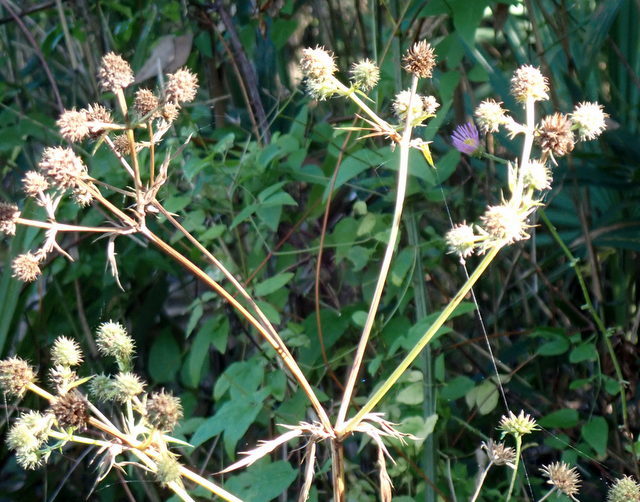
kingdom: Plantae
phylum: Tracheophyta
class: Magnoliopsida
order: Apiales
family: Apiaceae
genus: Eryngium
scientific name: Eryngium yuccifolium
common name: Button eryngo
